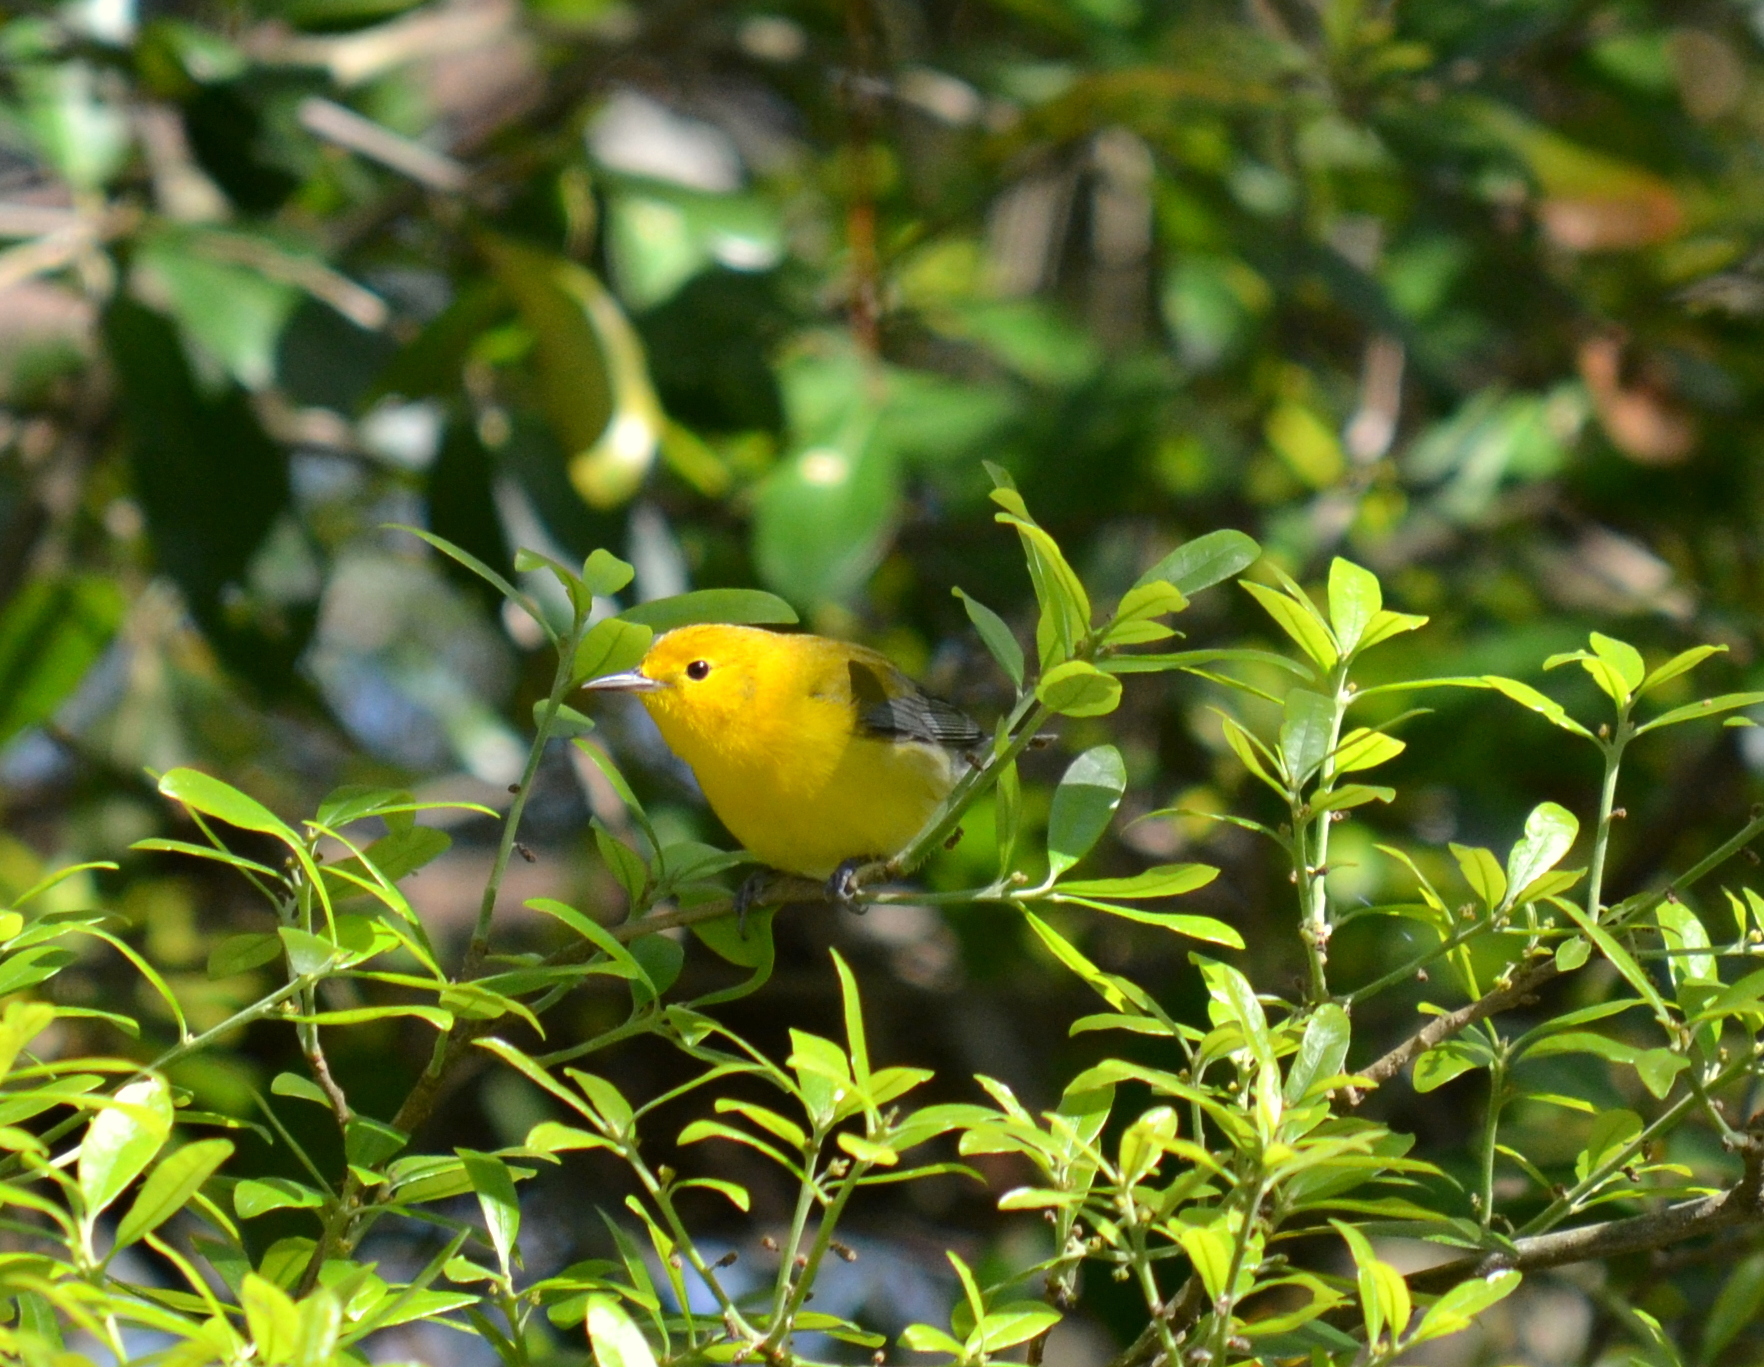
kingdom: Animalia
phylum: Chordata
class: Aves
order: Passeriformes
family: Parulidae
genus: Protonotaria
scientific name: Protonotaria citrea
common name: Prothonotary warbler
